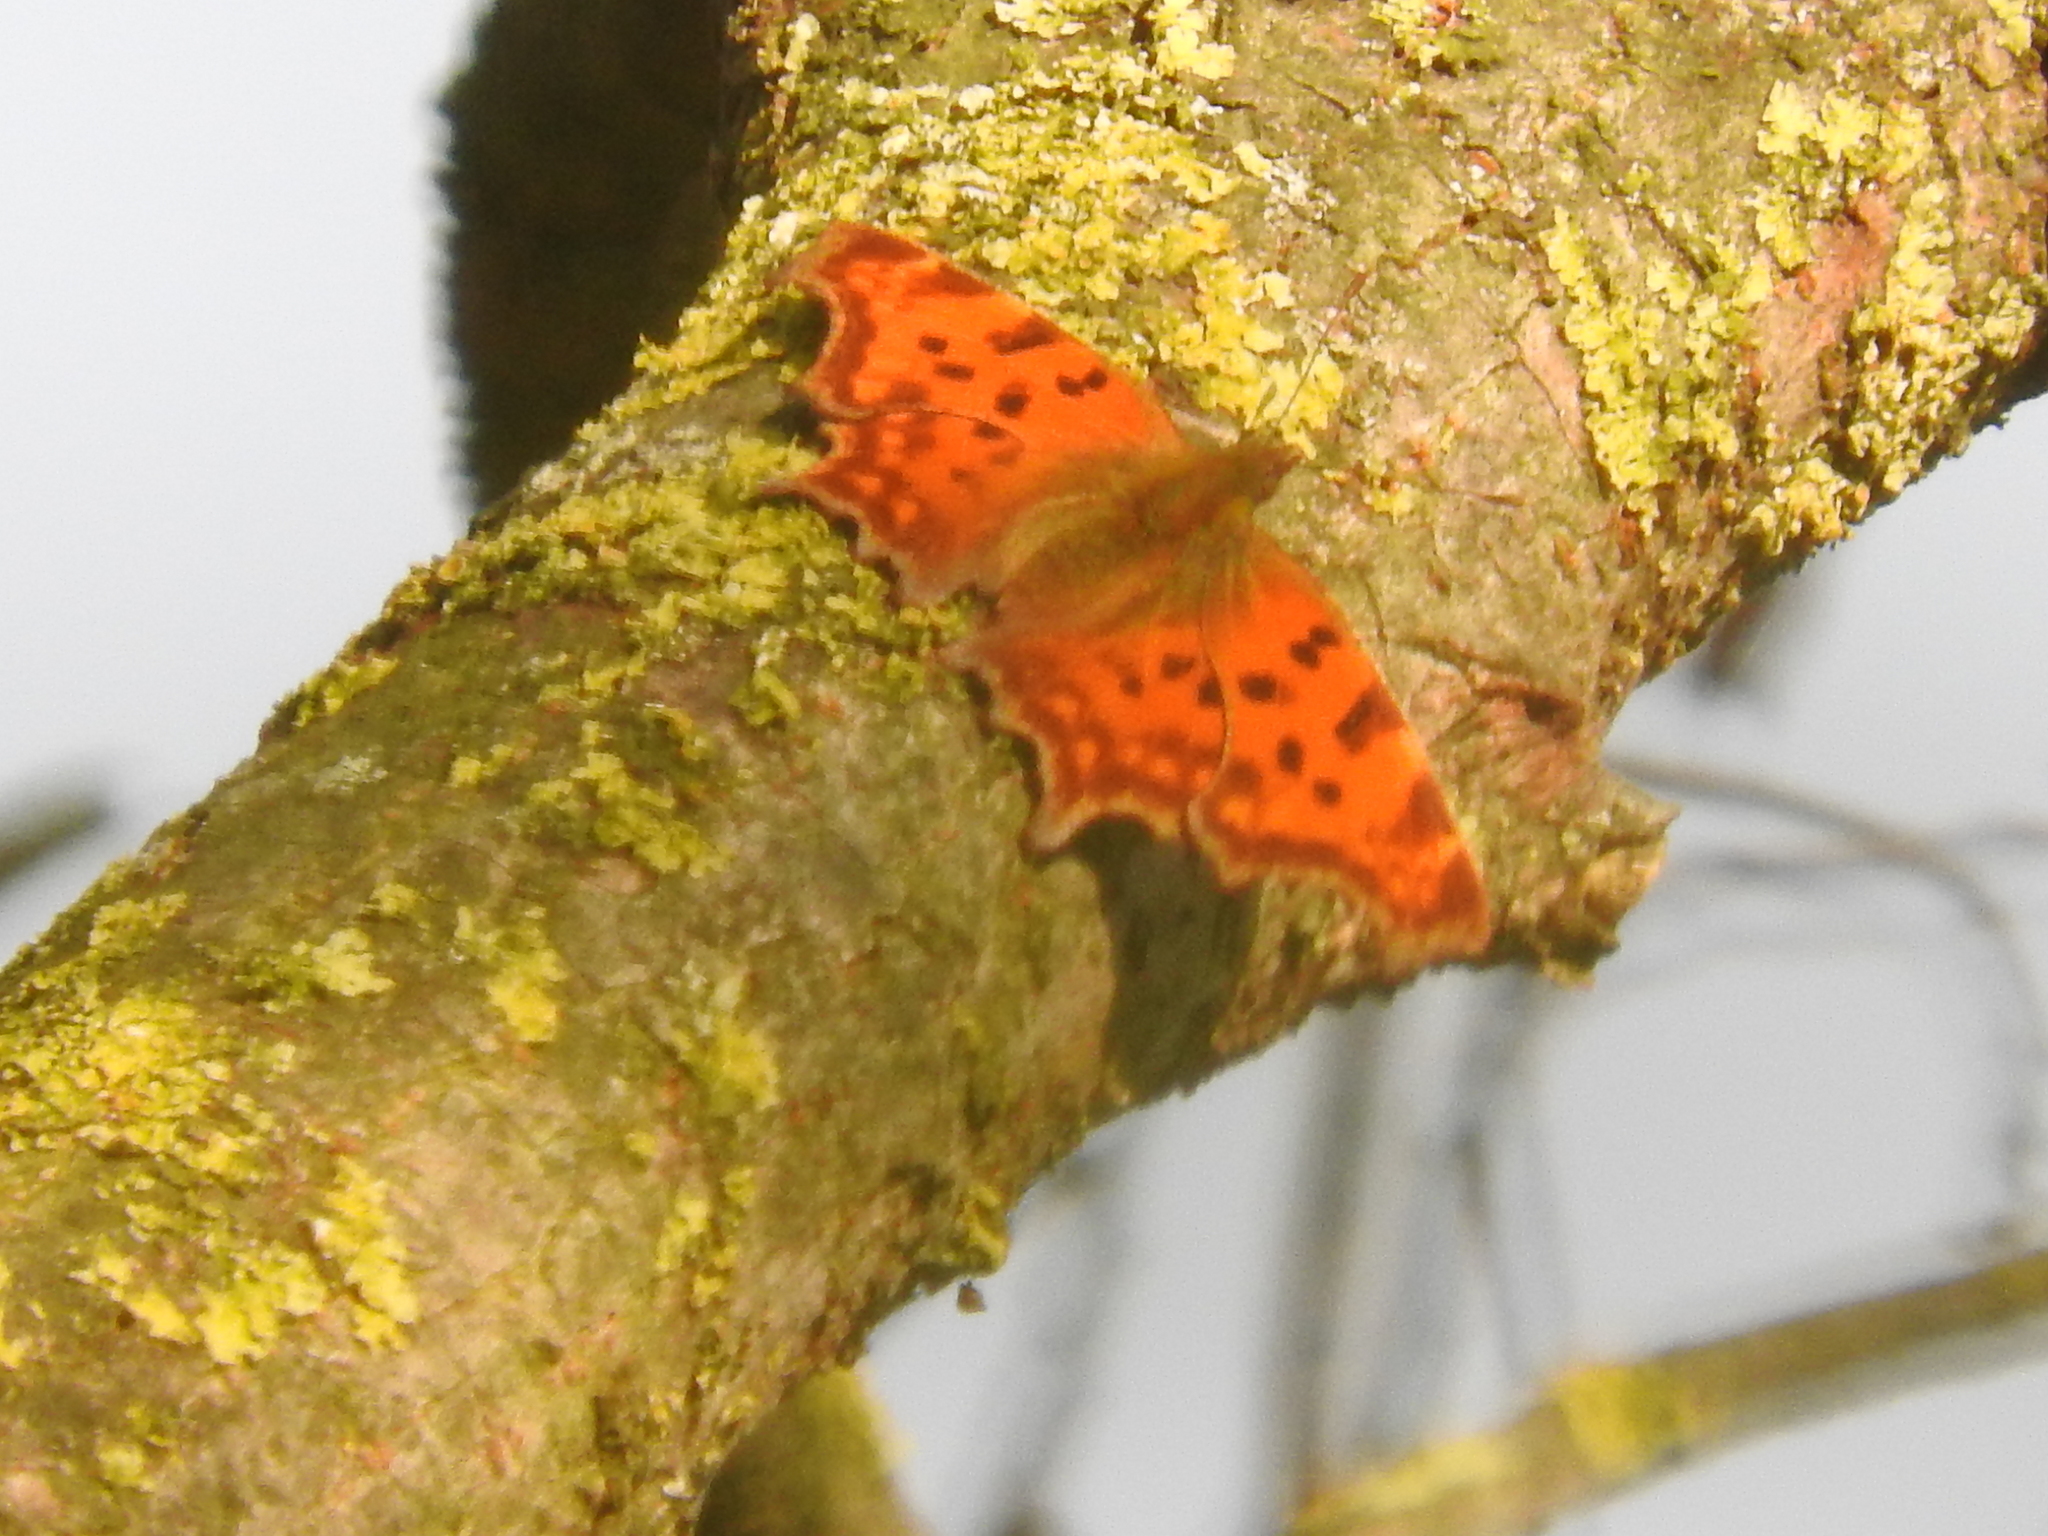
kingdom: Animalia
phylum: Arthropoda
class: Insecta
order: Lepidoptera
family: Nymphalidae
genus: Polygonia
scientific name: Polygonia c-album
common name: Comma
